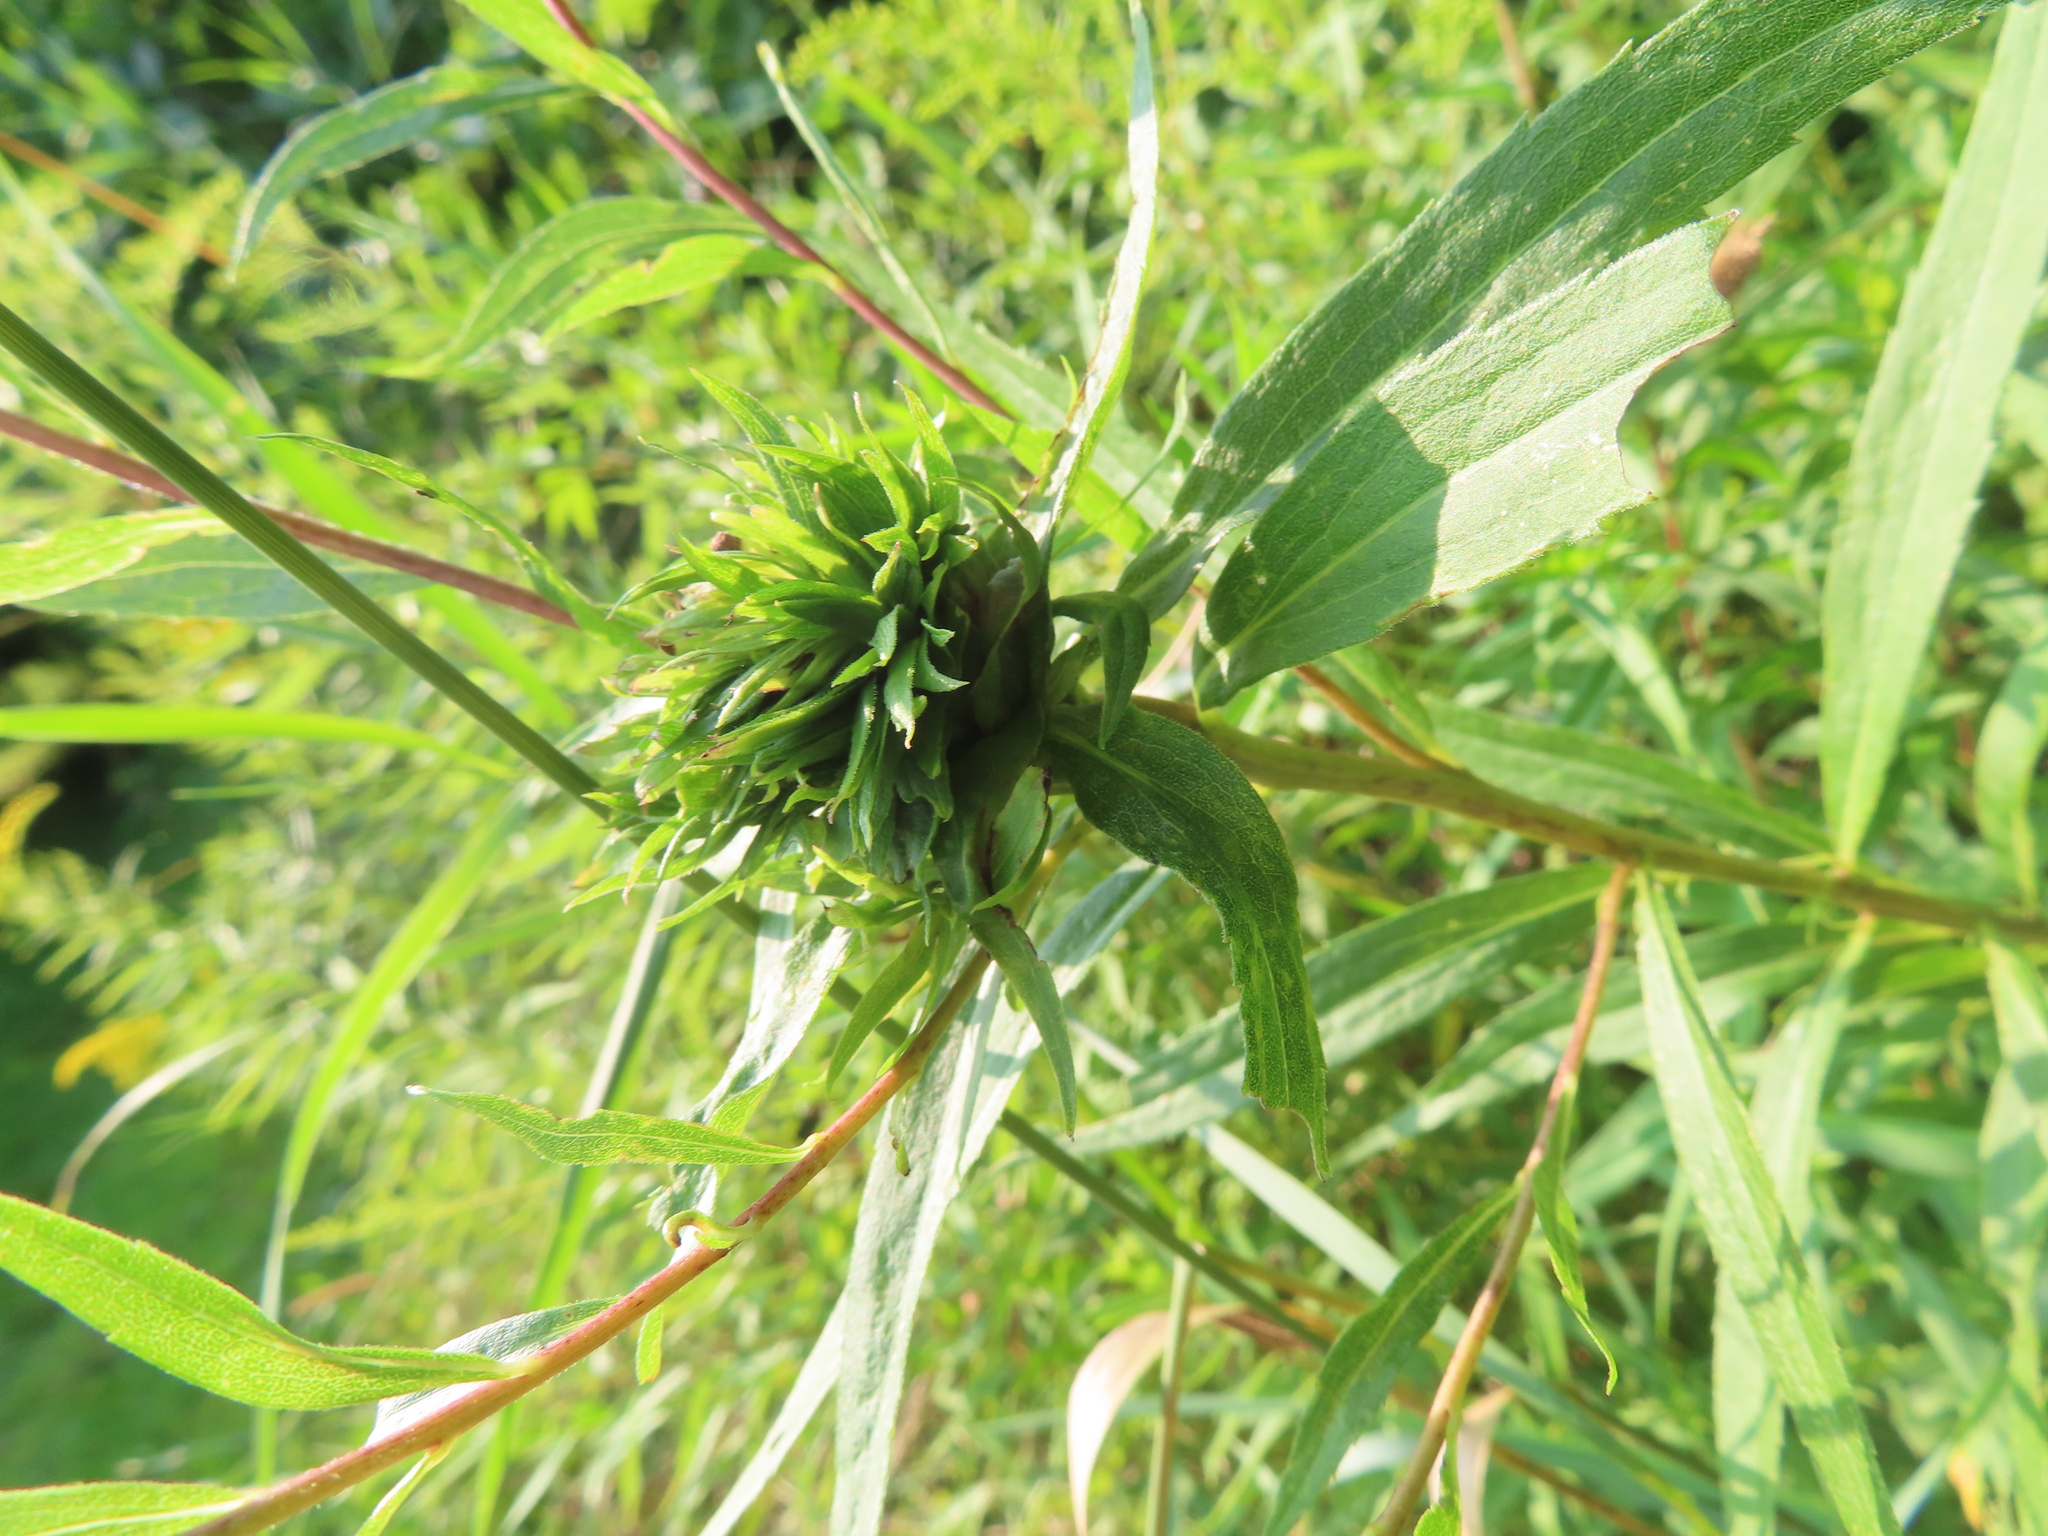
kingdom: Animalia
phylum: Arthropoda
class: Insecta
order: Diptera
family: Cecidomyiidae
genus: Rhopalomyia
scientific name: Rhopalomyia solidaginis
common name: Goldenrod bunch gall midge
